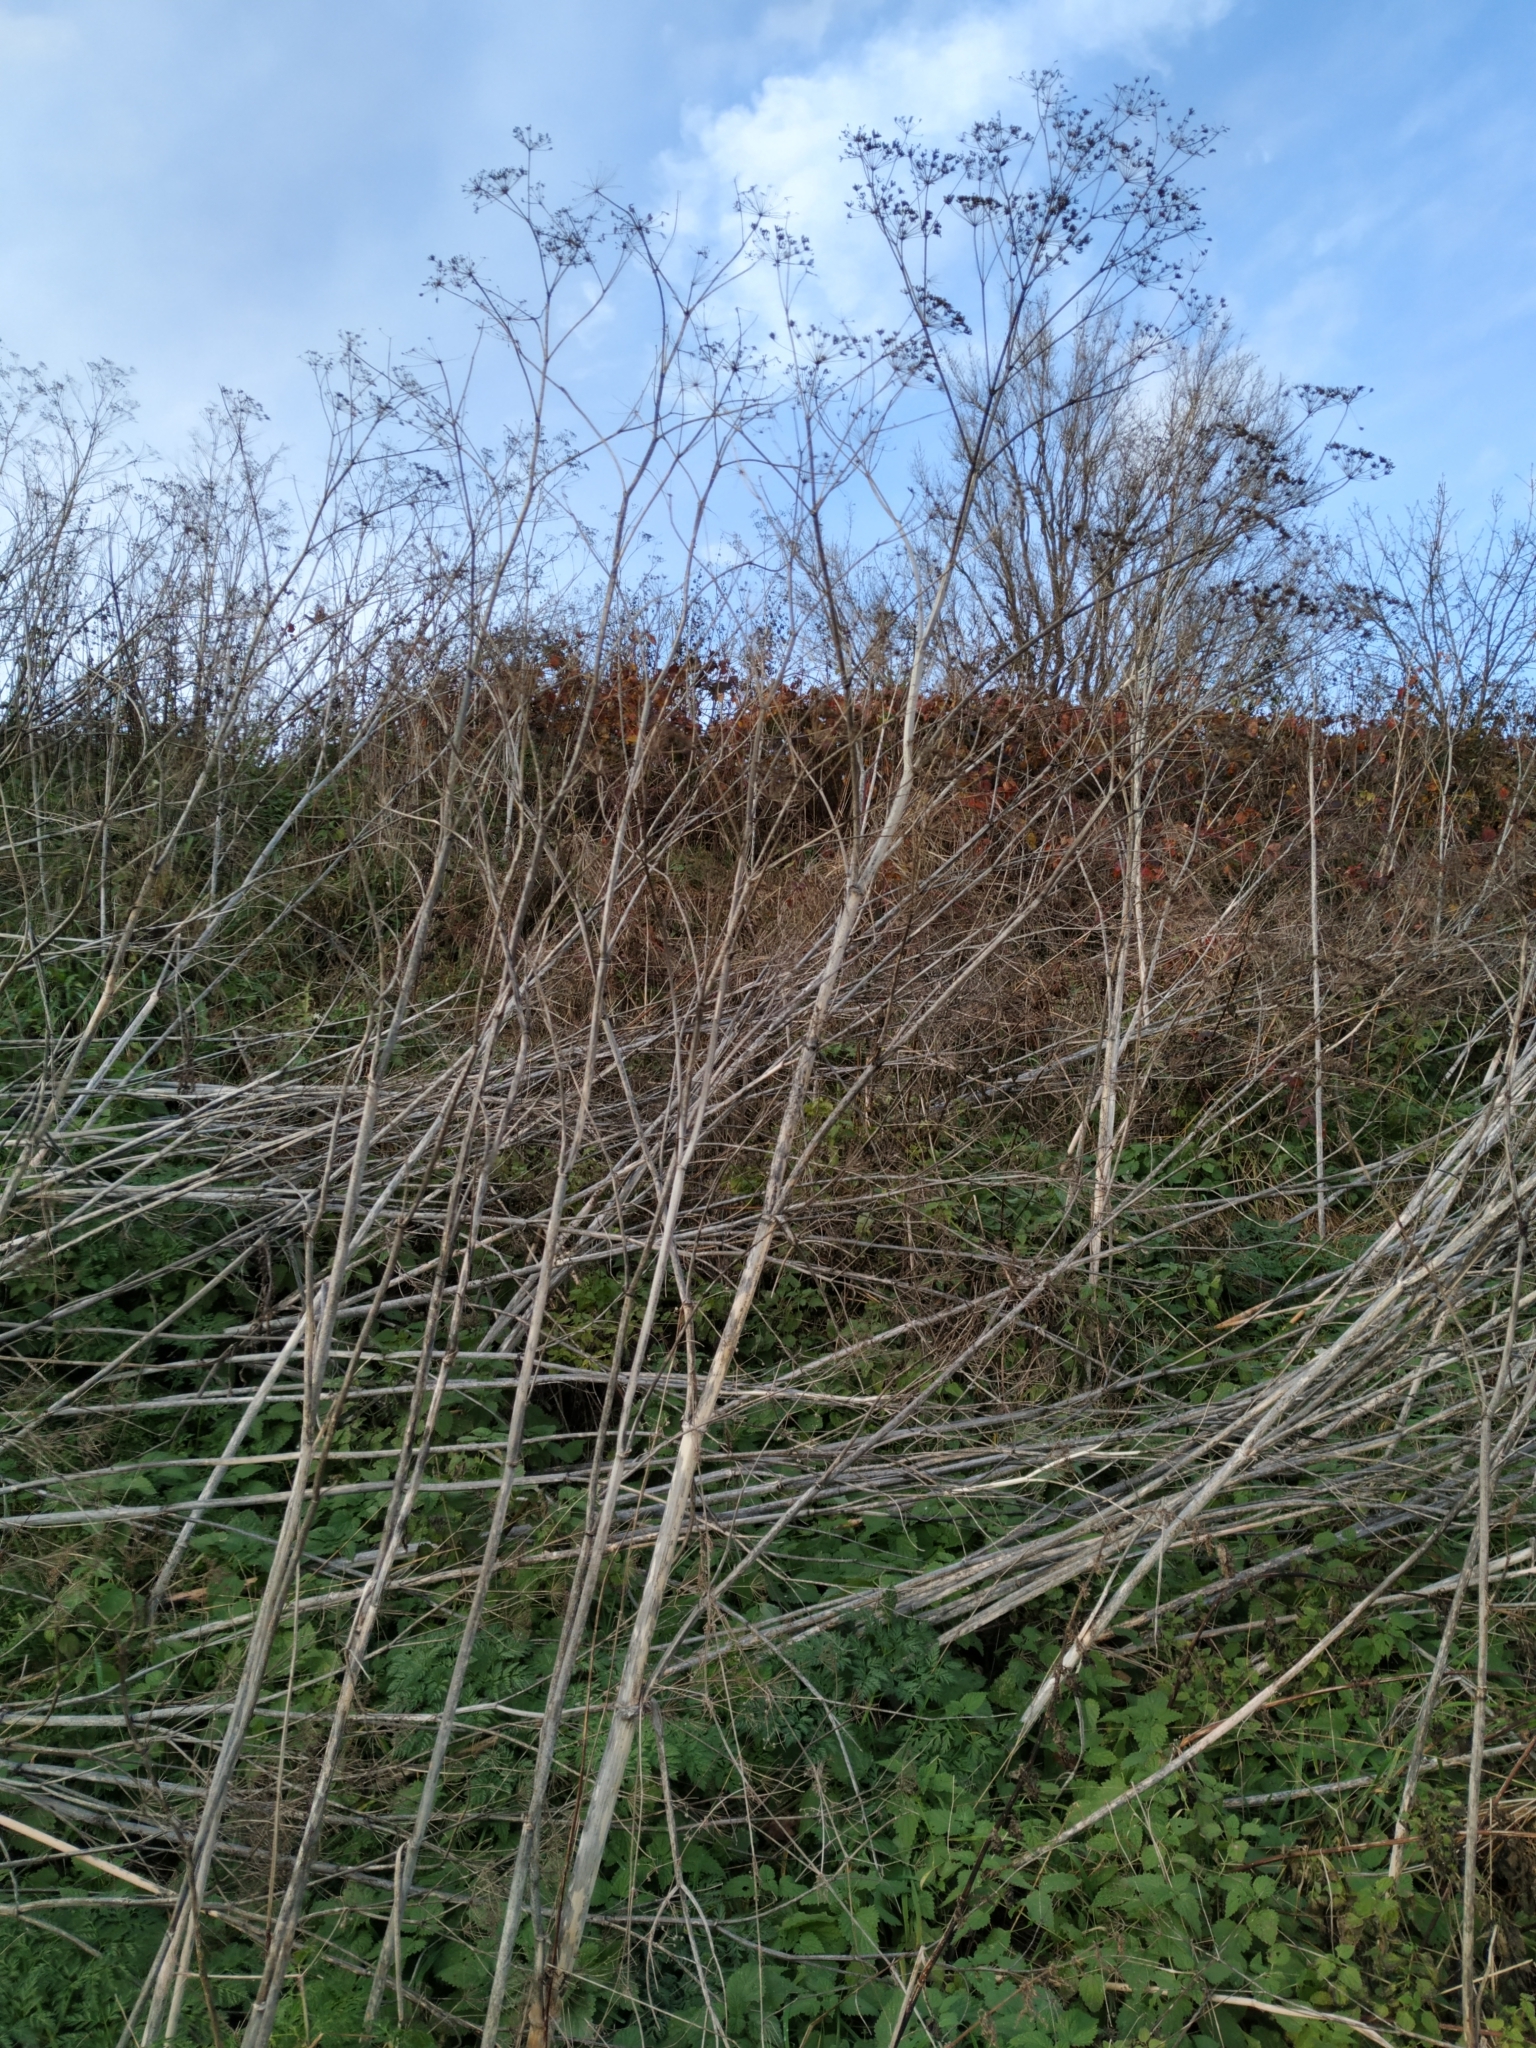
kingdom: Plantae
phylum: Tracheophyta
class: Magnoliopsida
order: Apiales
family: Apiaceae
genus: Conium
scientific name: Conium maculatum
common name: Hemlock
